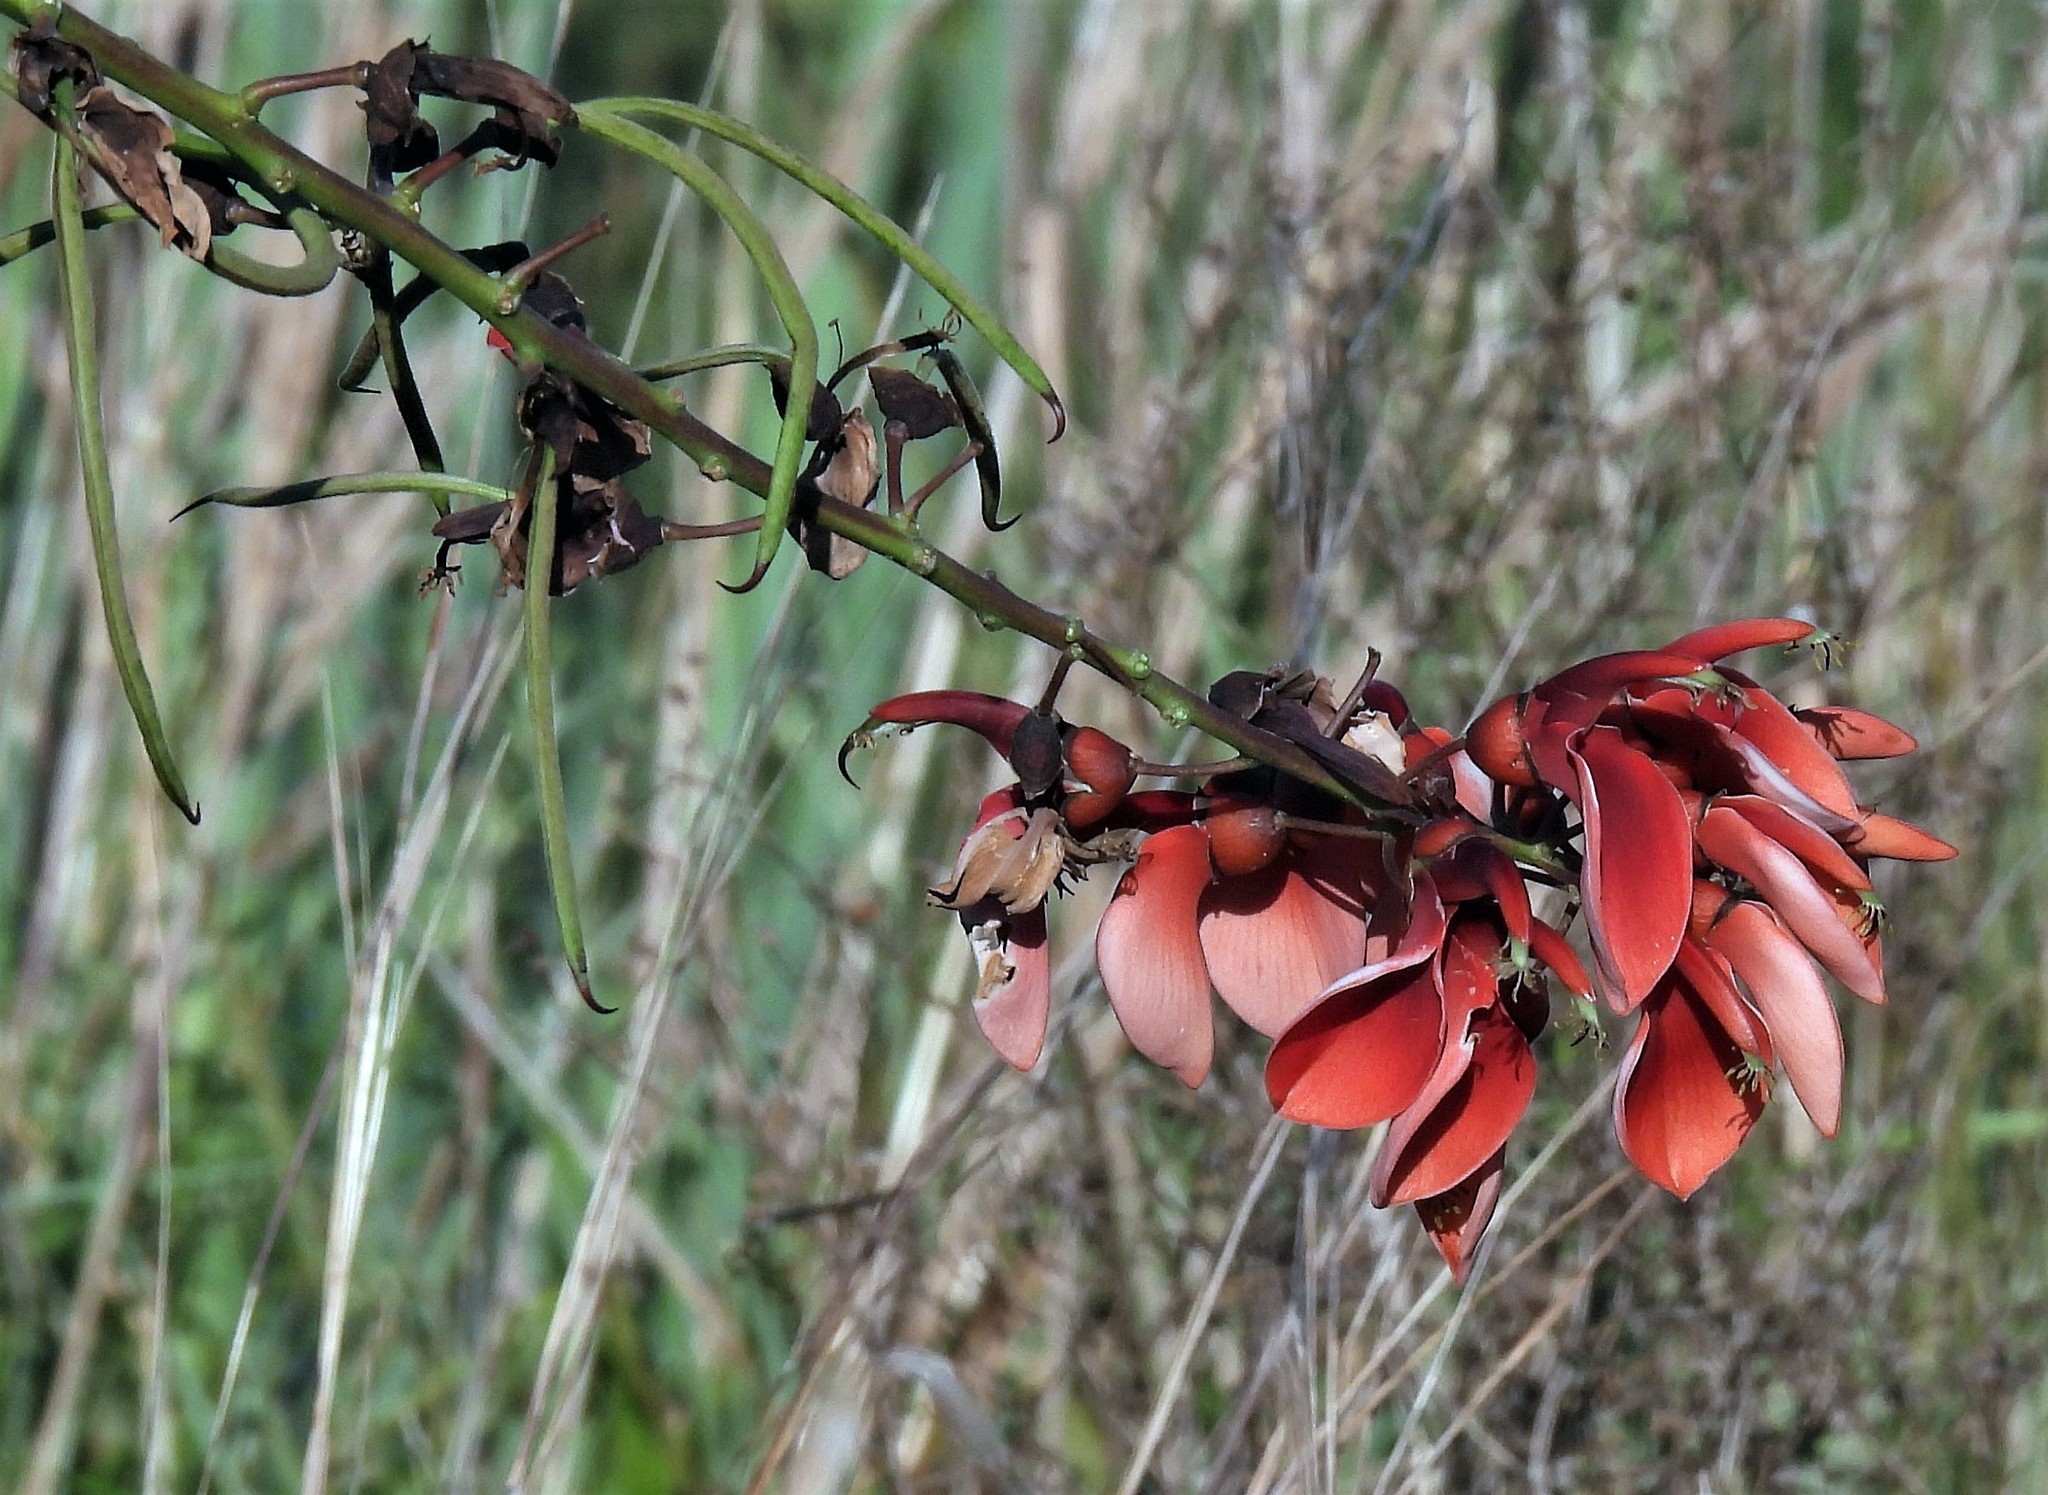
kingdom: Plantae
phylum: Tracheophyta
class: Magnoliopsida
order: Fabales
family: Fabaceae
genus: Erythrina
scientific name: Erythrina crista-galli
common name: Cockspur coral tree
